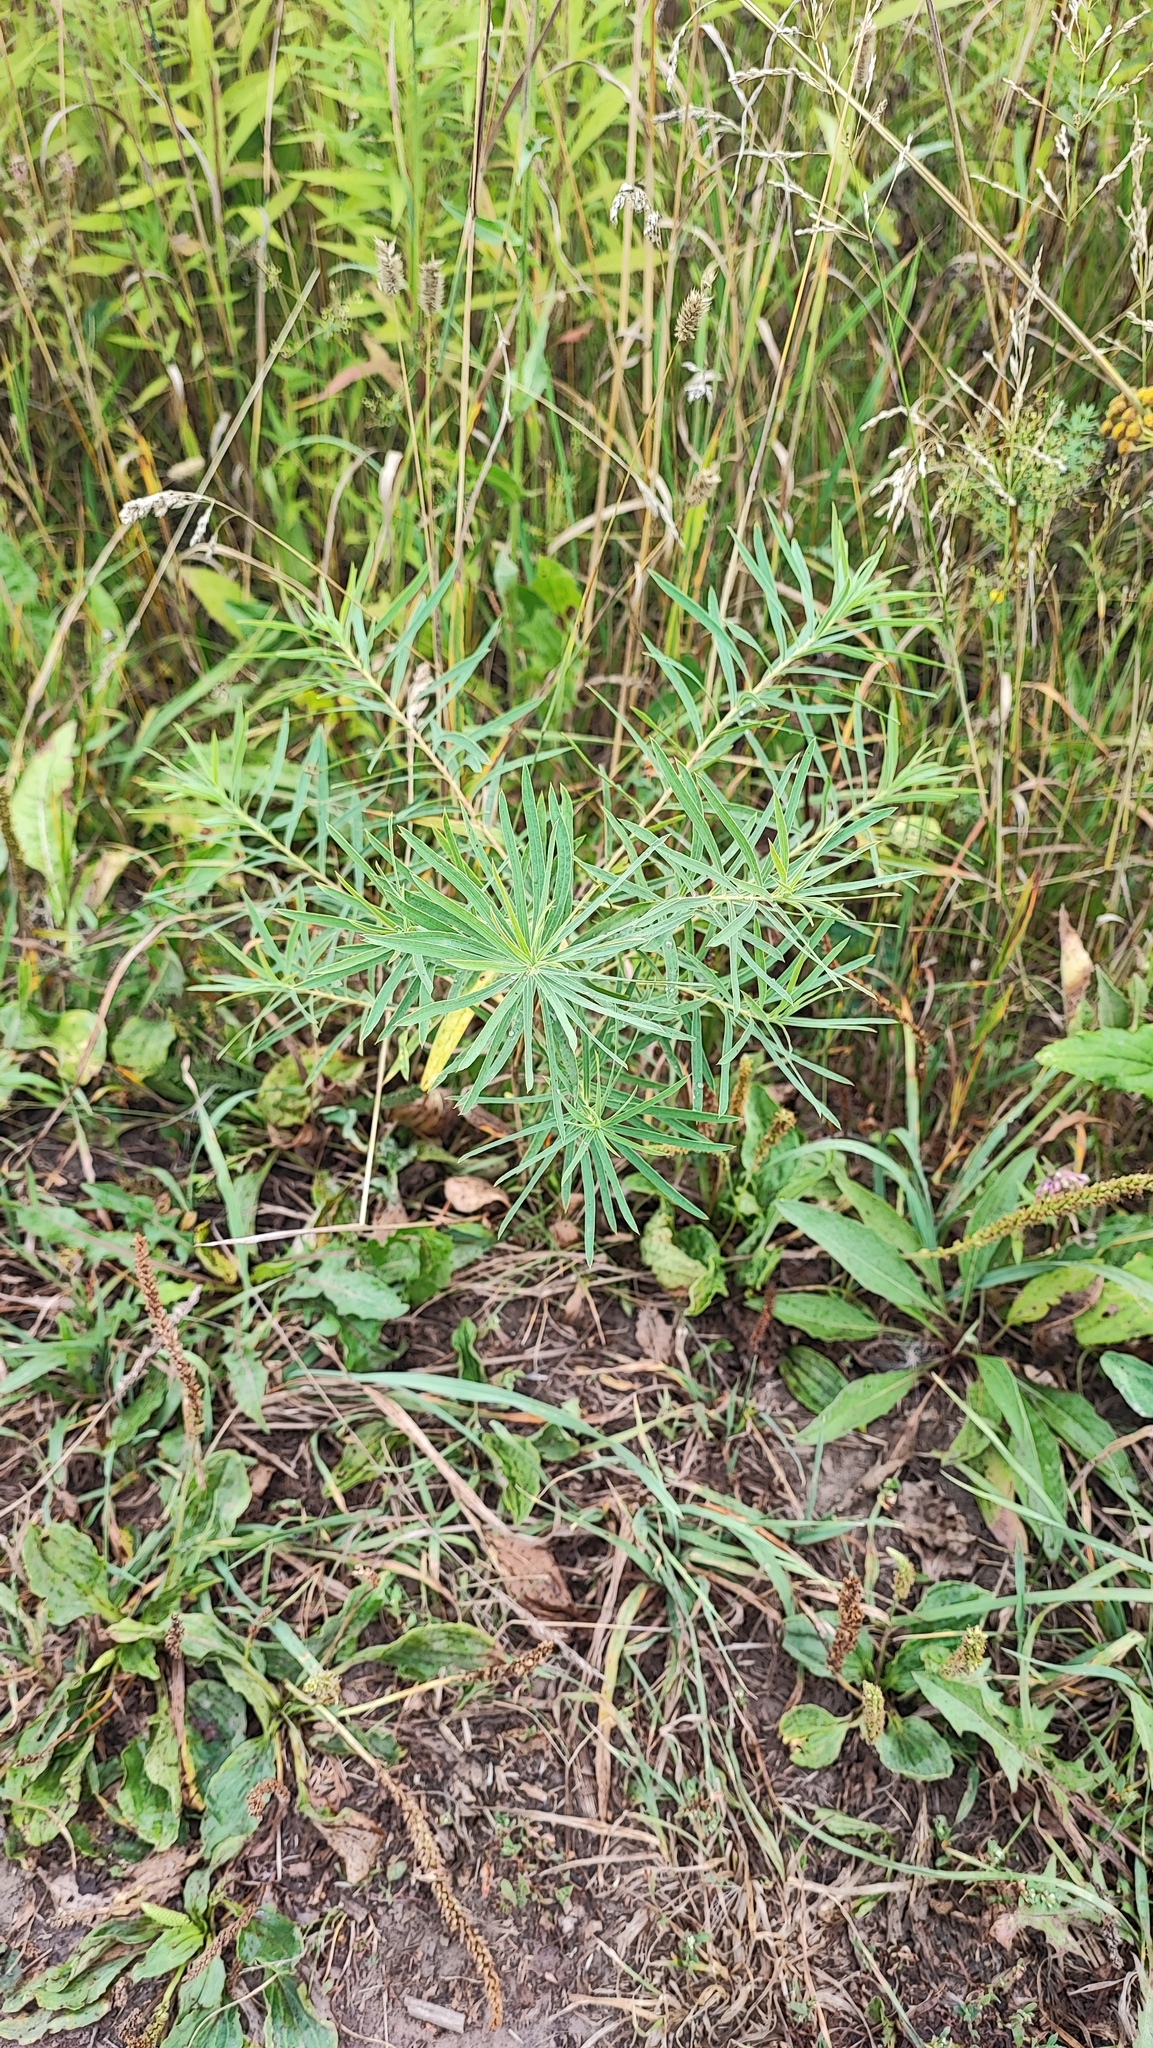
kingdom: Plantae
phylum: Tracheophyta
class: Magnoliopsida
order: Malpighiales
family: Euphorbiaceae
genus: Euphorbia
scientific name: Euphorbia virgata
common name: Leafy spurge
